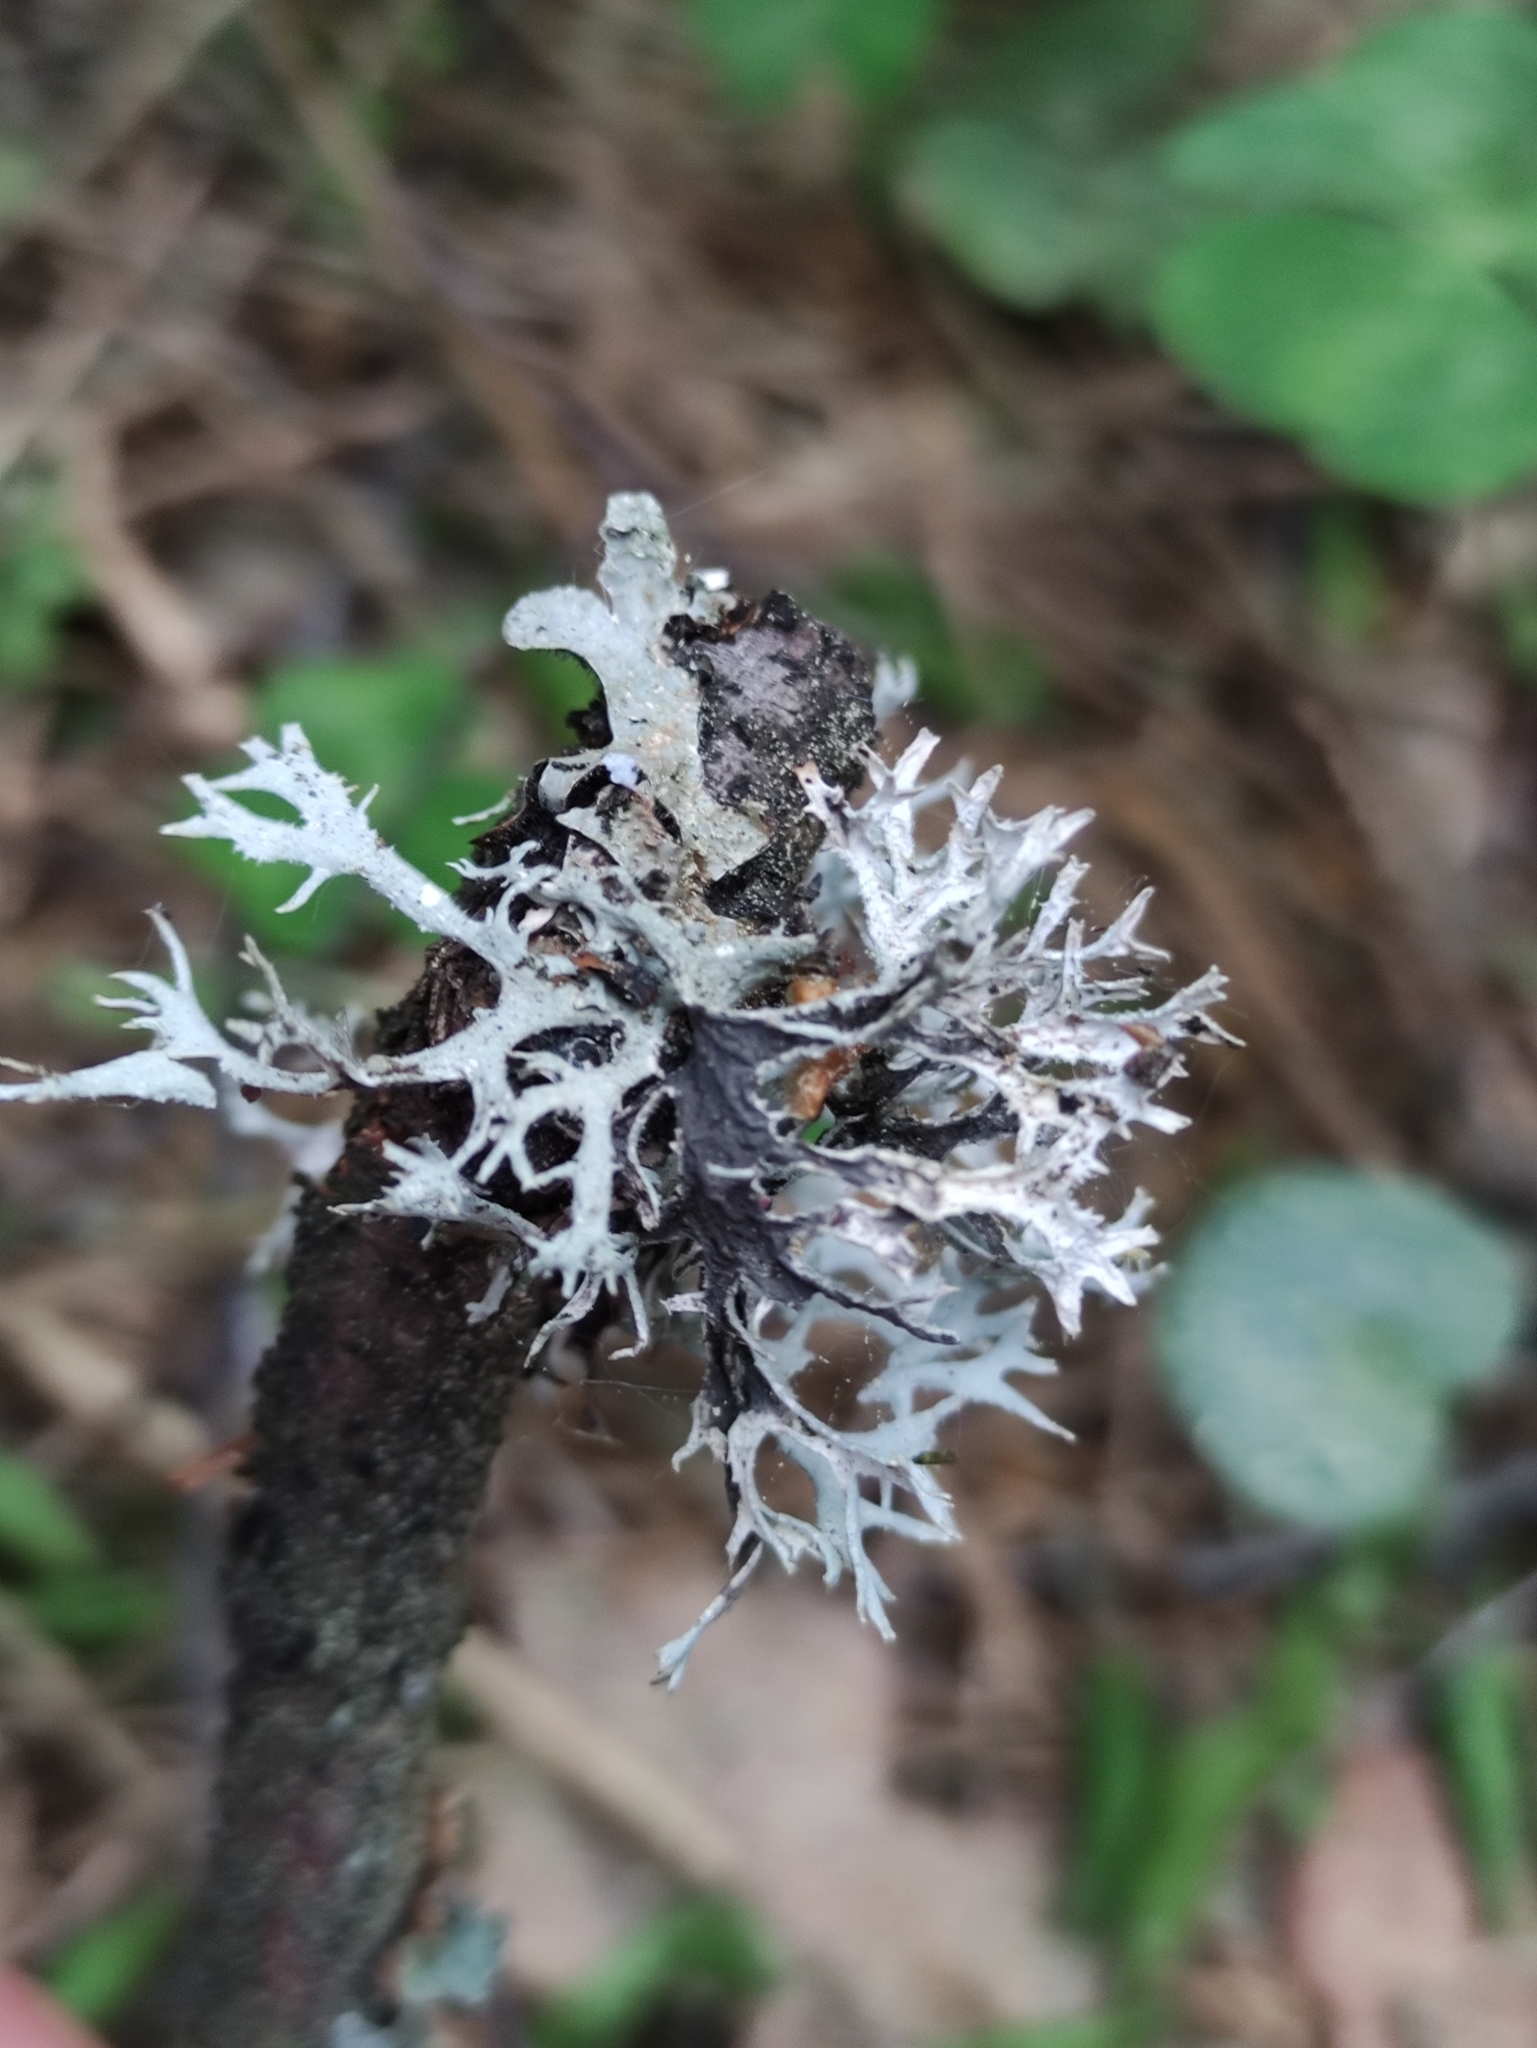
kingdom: Fungi
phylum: Ascomycota
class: Lecanoromycetes
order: Lecanorales
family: Parmeliaceae
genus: Pseudevernia
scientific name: Pseudevernia furfuracea
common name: Tree moss
